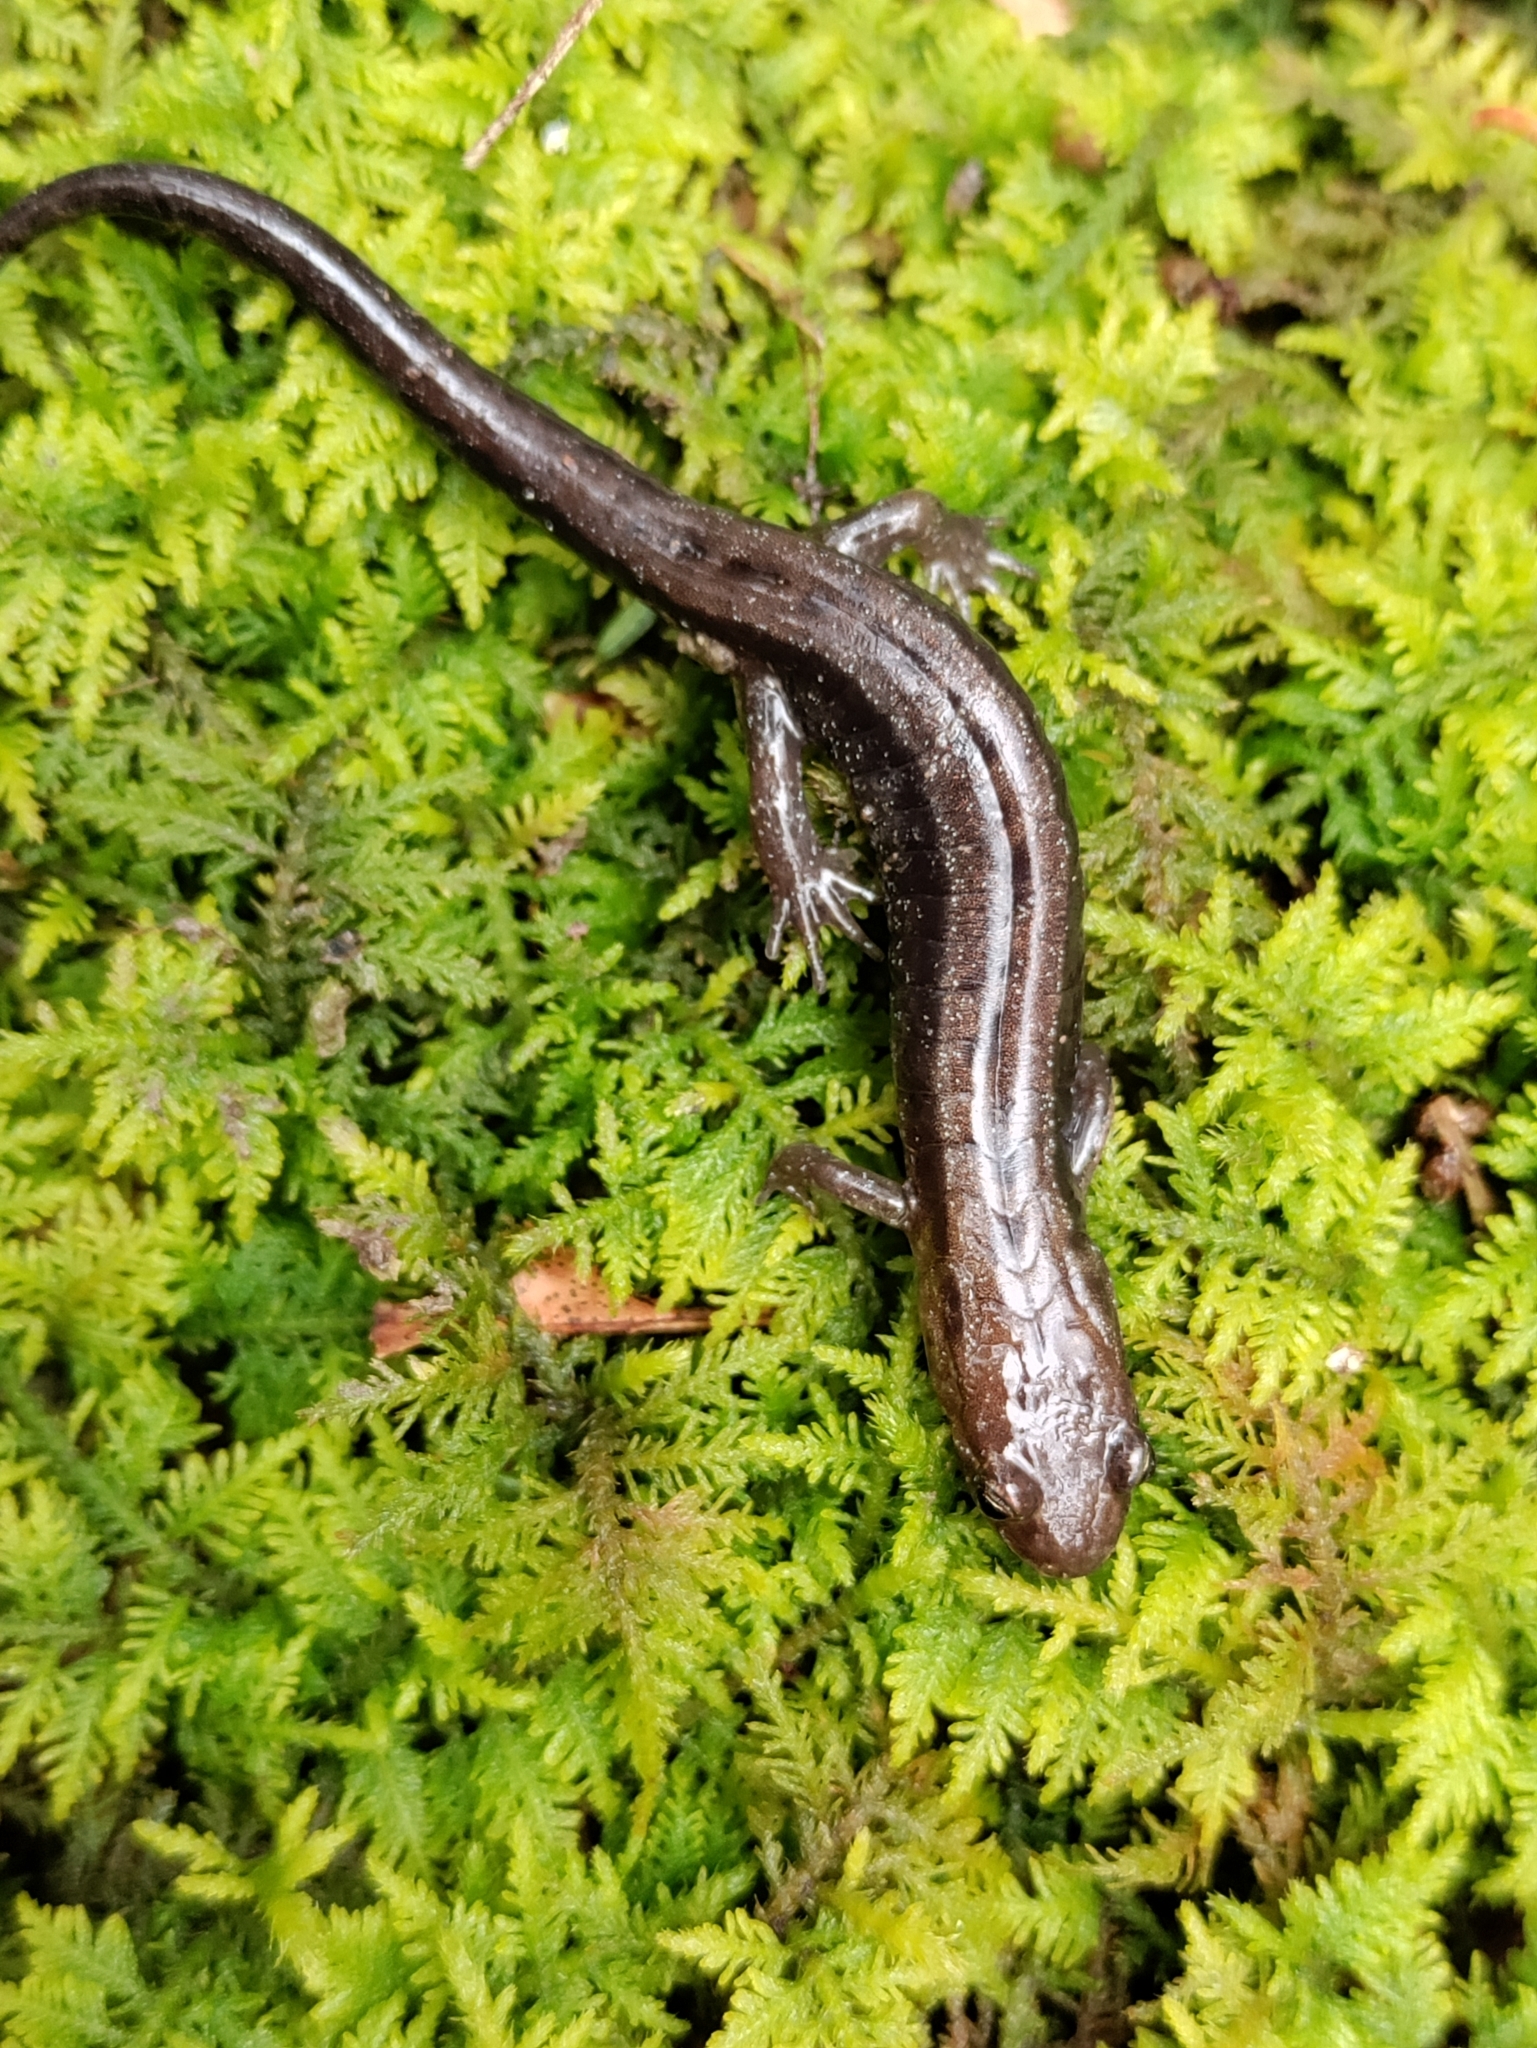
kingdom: Animalia
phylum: Chordata
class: Amphibia
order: Caudata
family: Plethodontidae
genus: Desmognathus
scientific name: Desmognathus ochrophaeus
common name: Allegheny mountain dusky salamander
